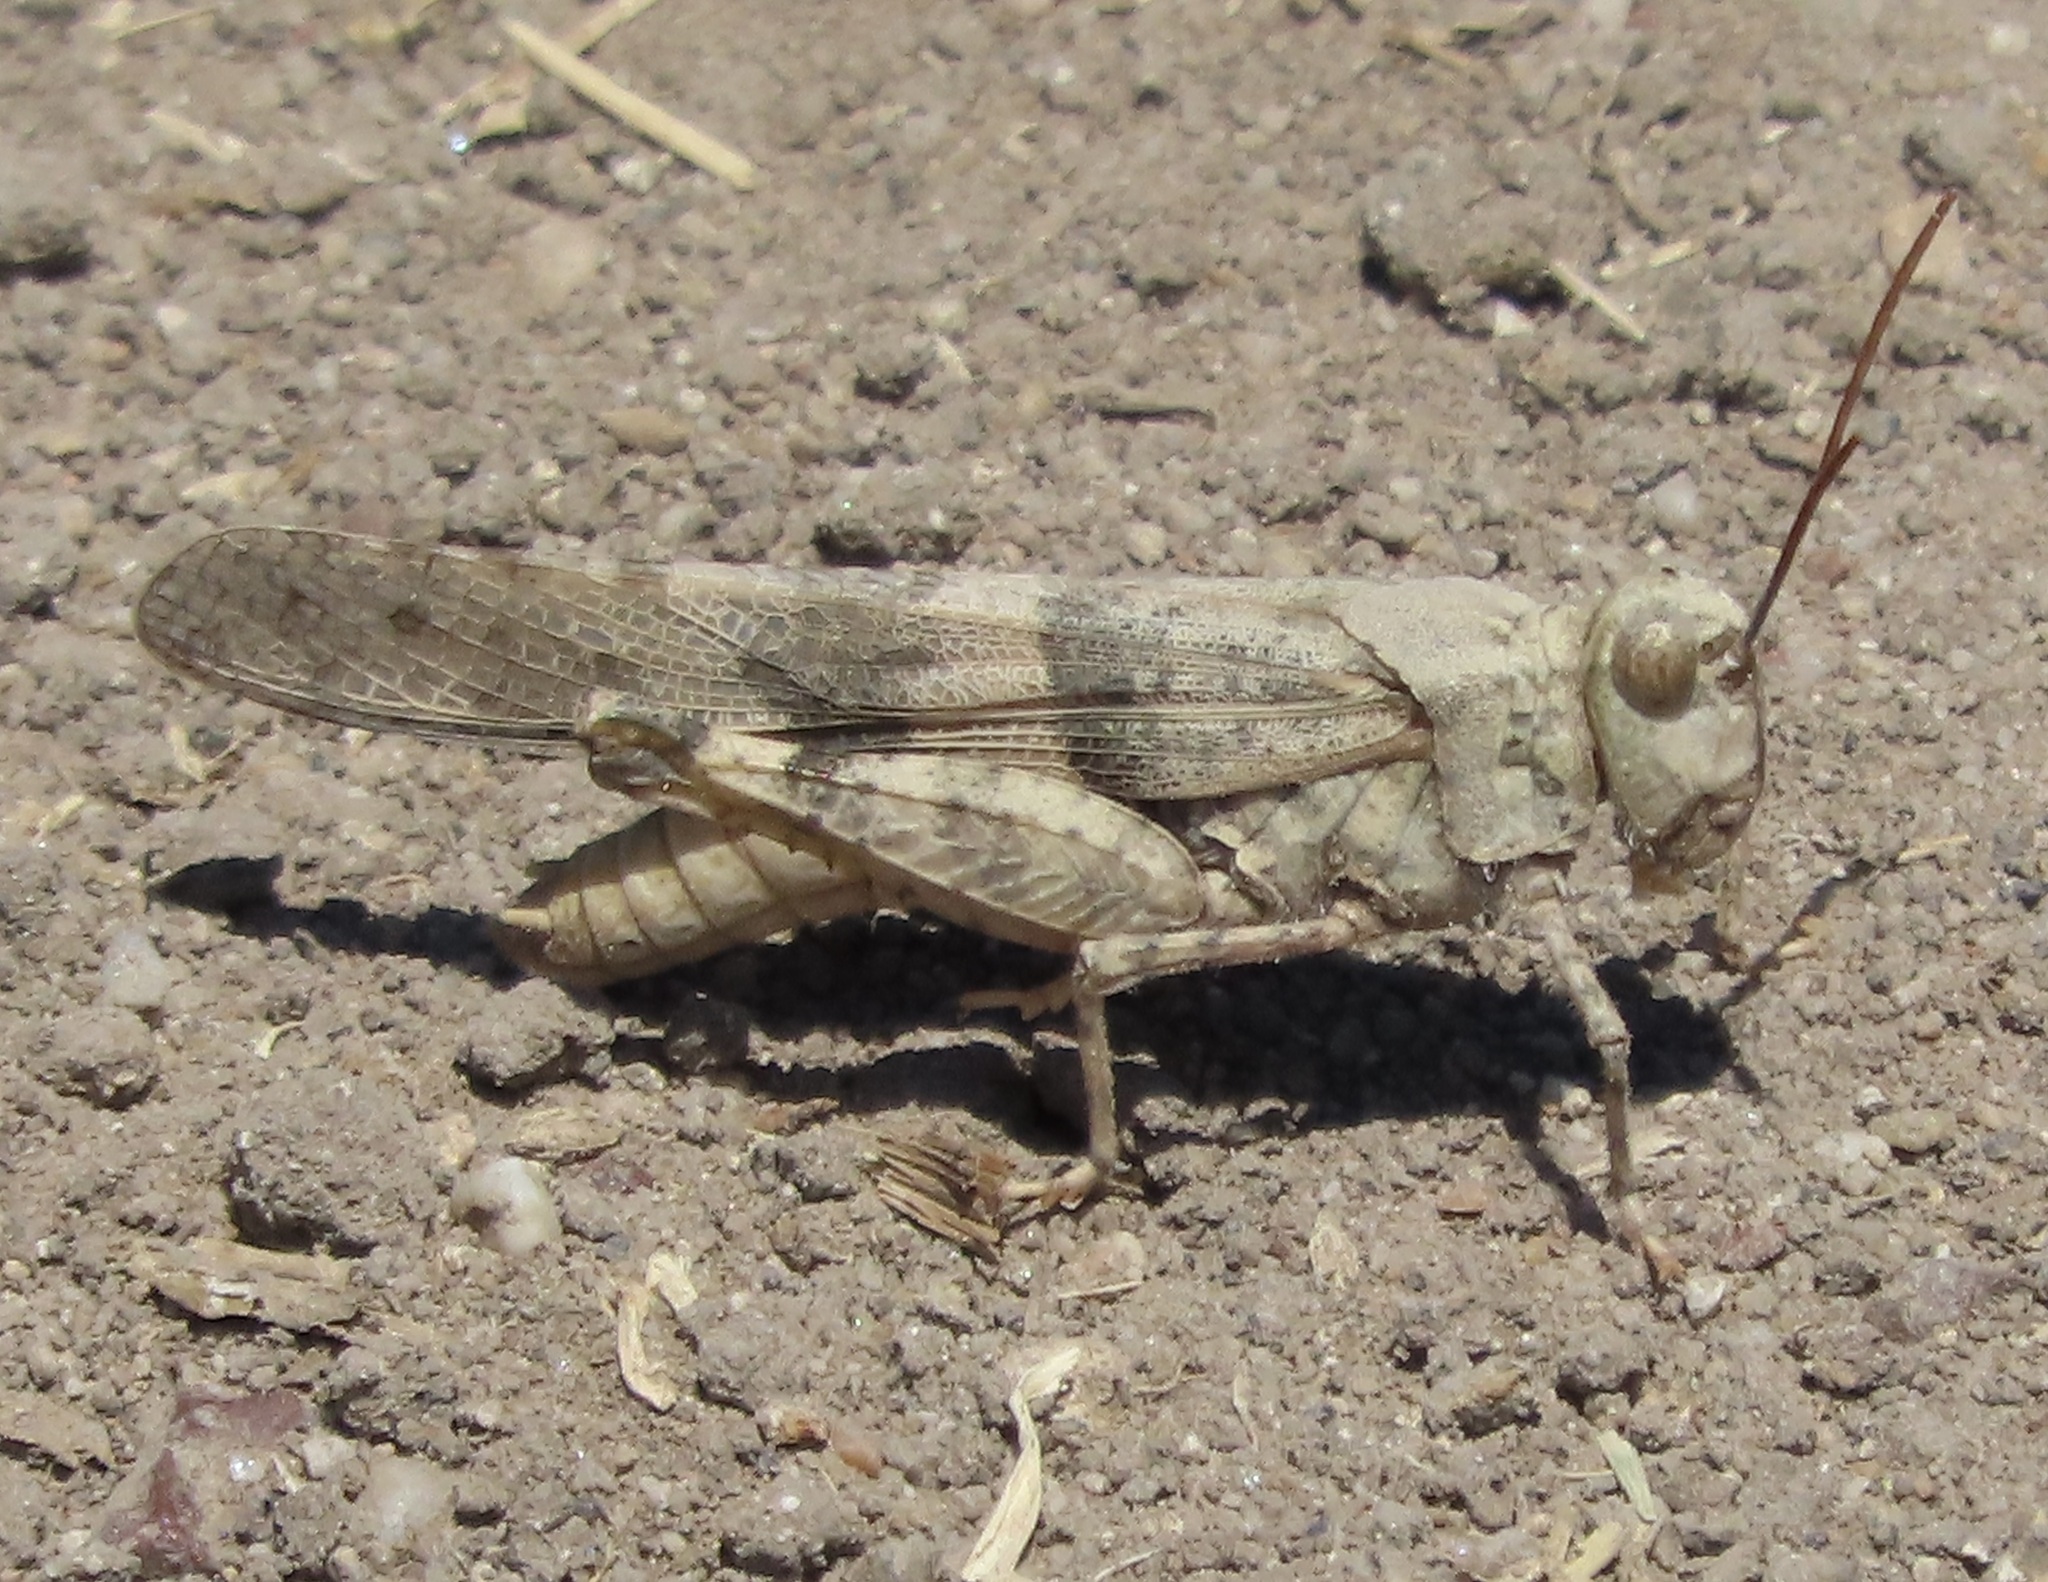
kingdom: Animalia
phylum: Arthropoda
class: Insecta
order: Orthoptera
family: Acrididae
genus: Trimerotropis
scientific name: Trimerotropis pallidipennis
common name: Pallid-winged grasshopper
